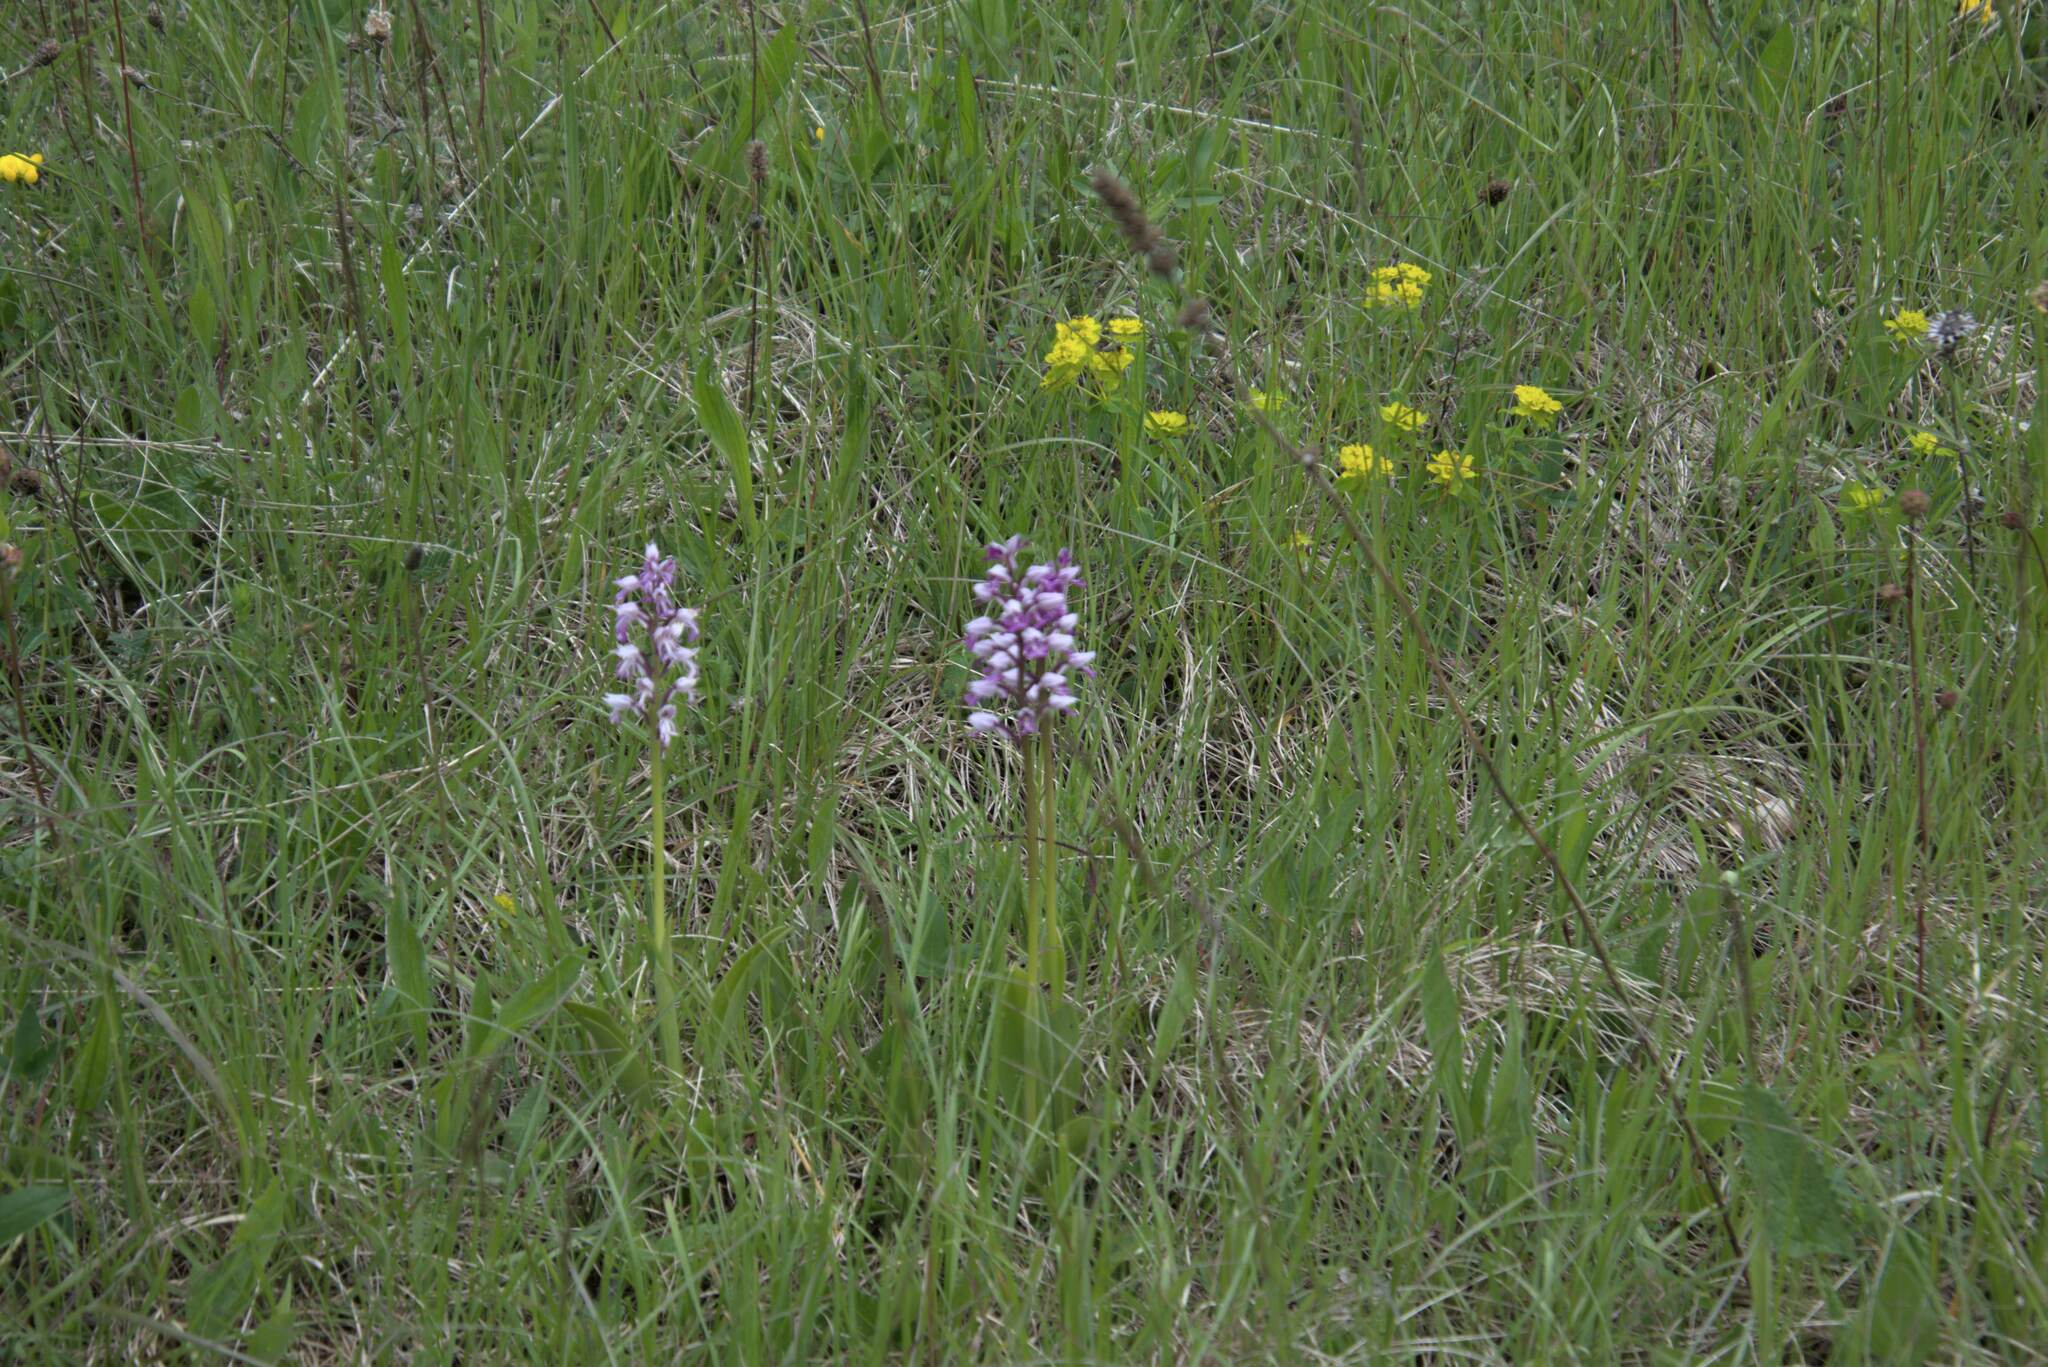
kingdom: Plantae
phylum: Tracheophyta
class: Liliopsida
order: Asparagales
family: Orchidaceae
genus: Orchis
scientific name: Orchis militaris
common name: Military orchid
